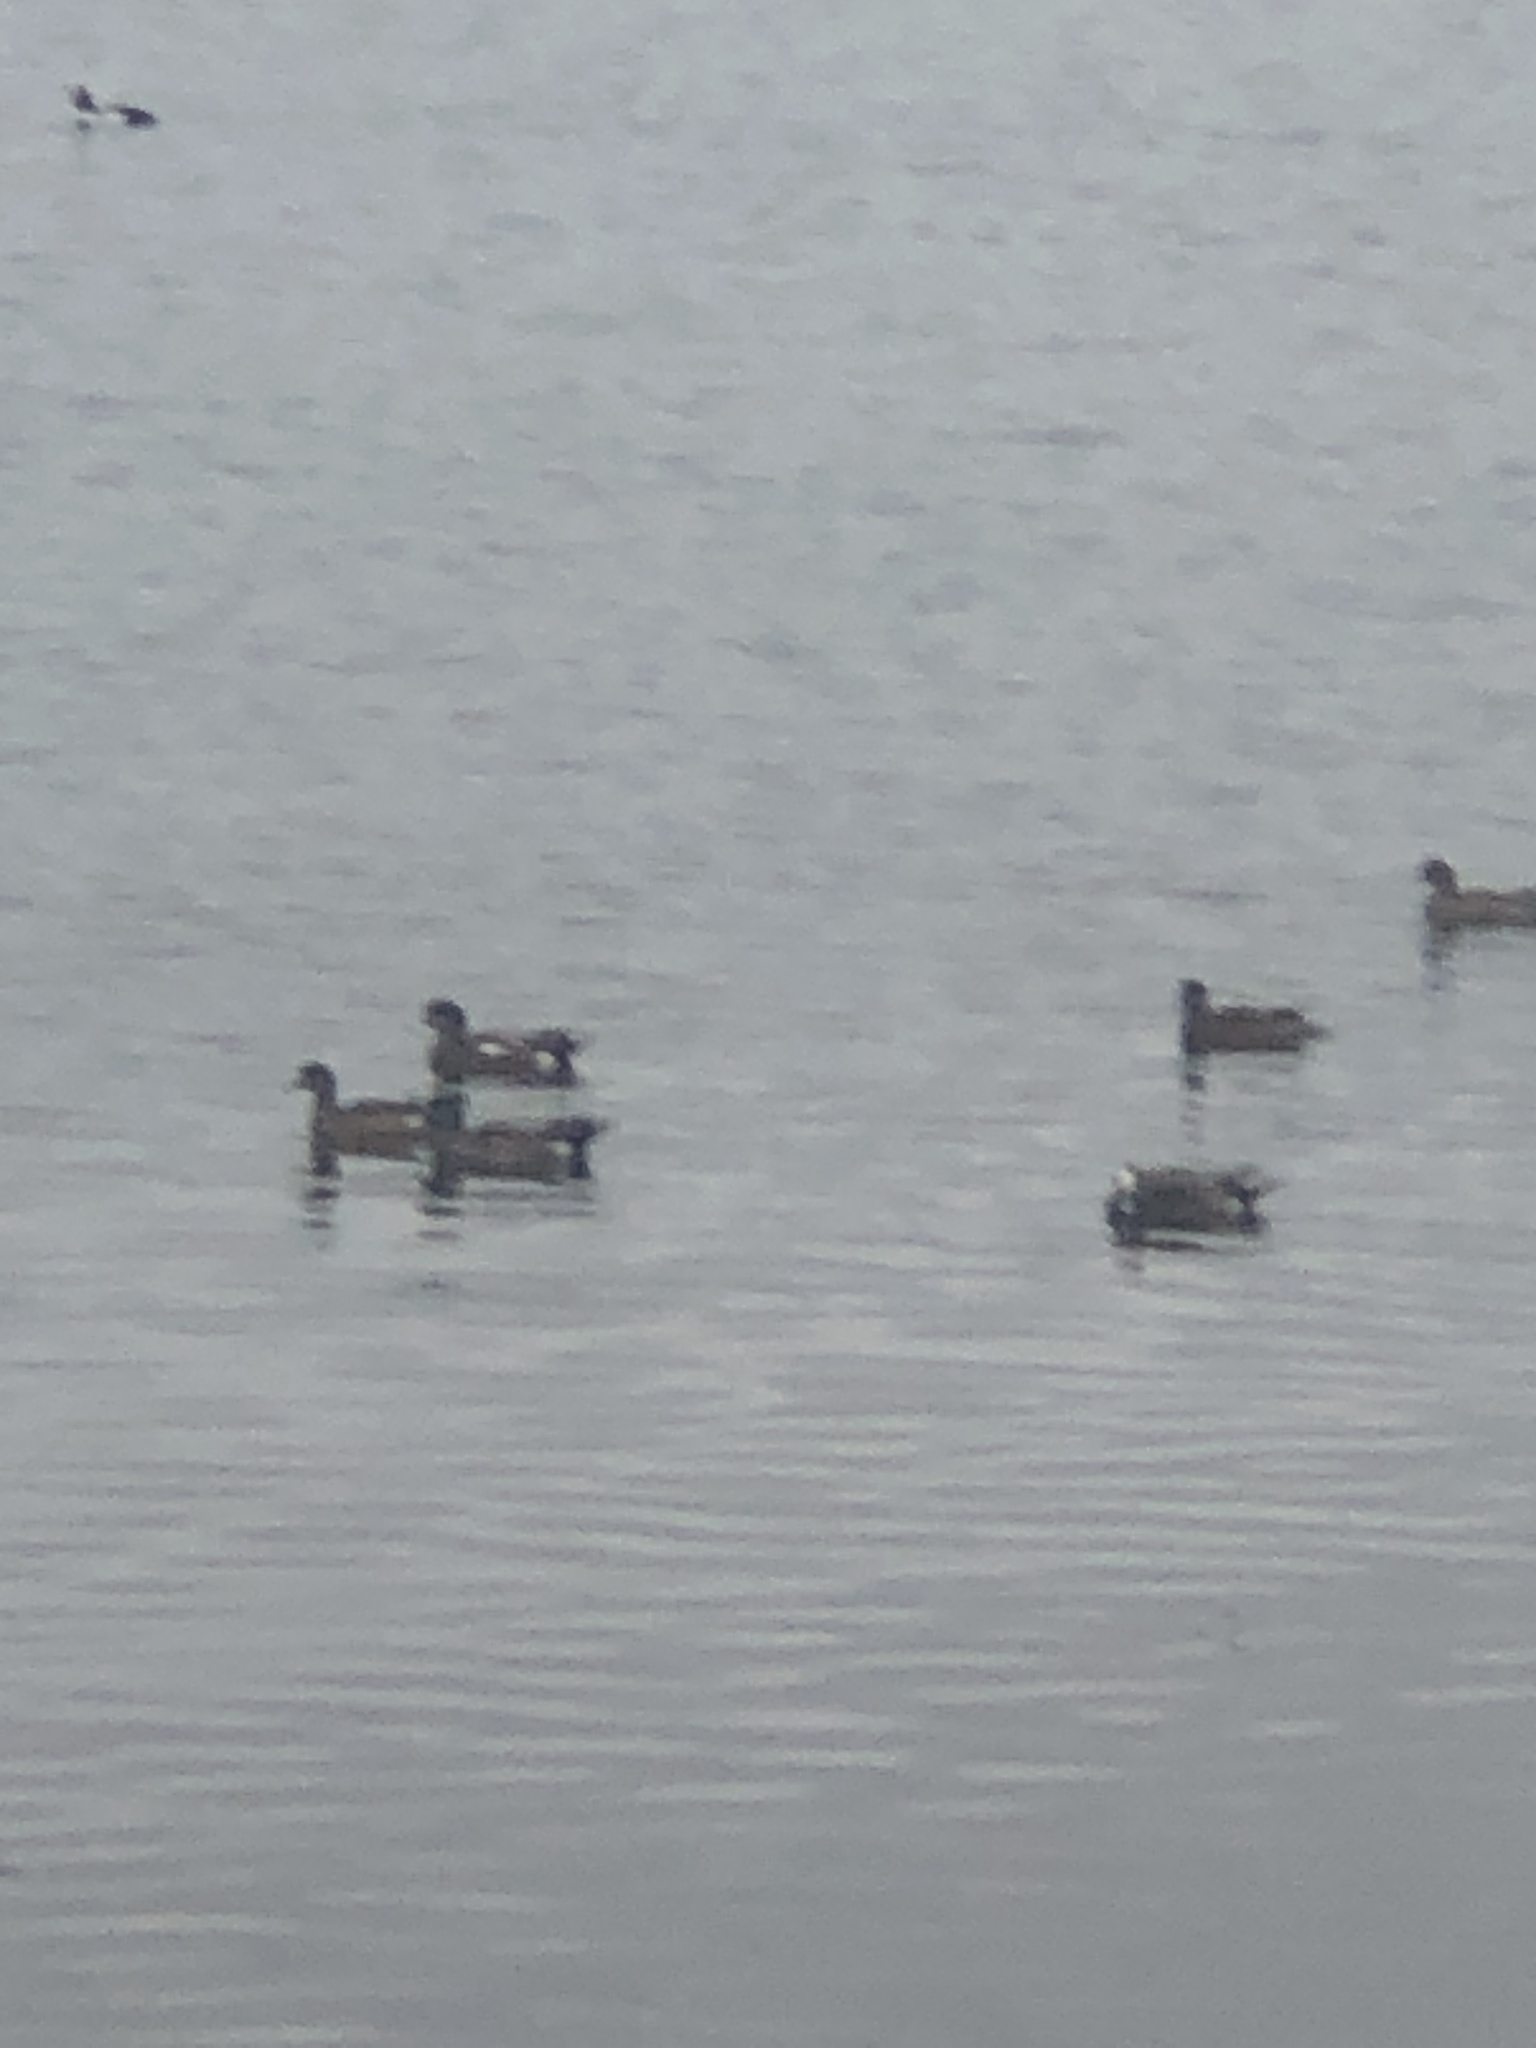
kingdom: Animalia
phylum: Chordata
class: Aves
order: Anseriformes
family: Anatidae
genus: Mareca
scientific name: Mareca americana
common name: American wigeon
